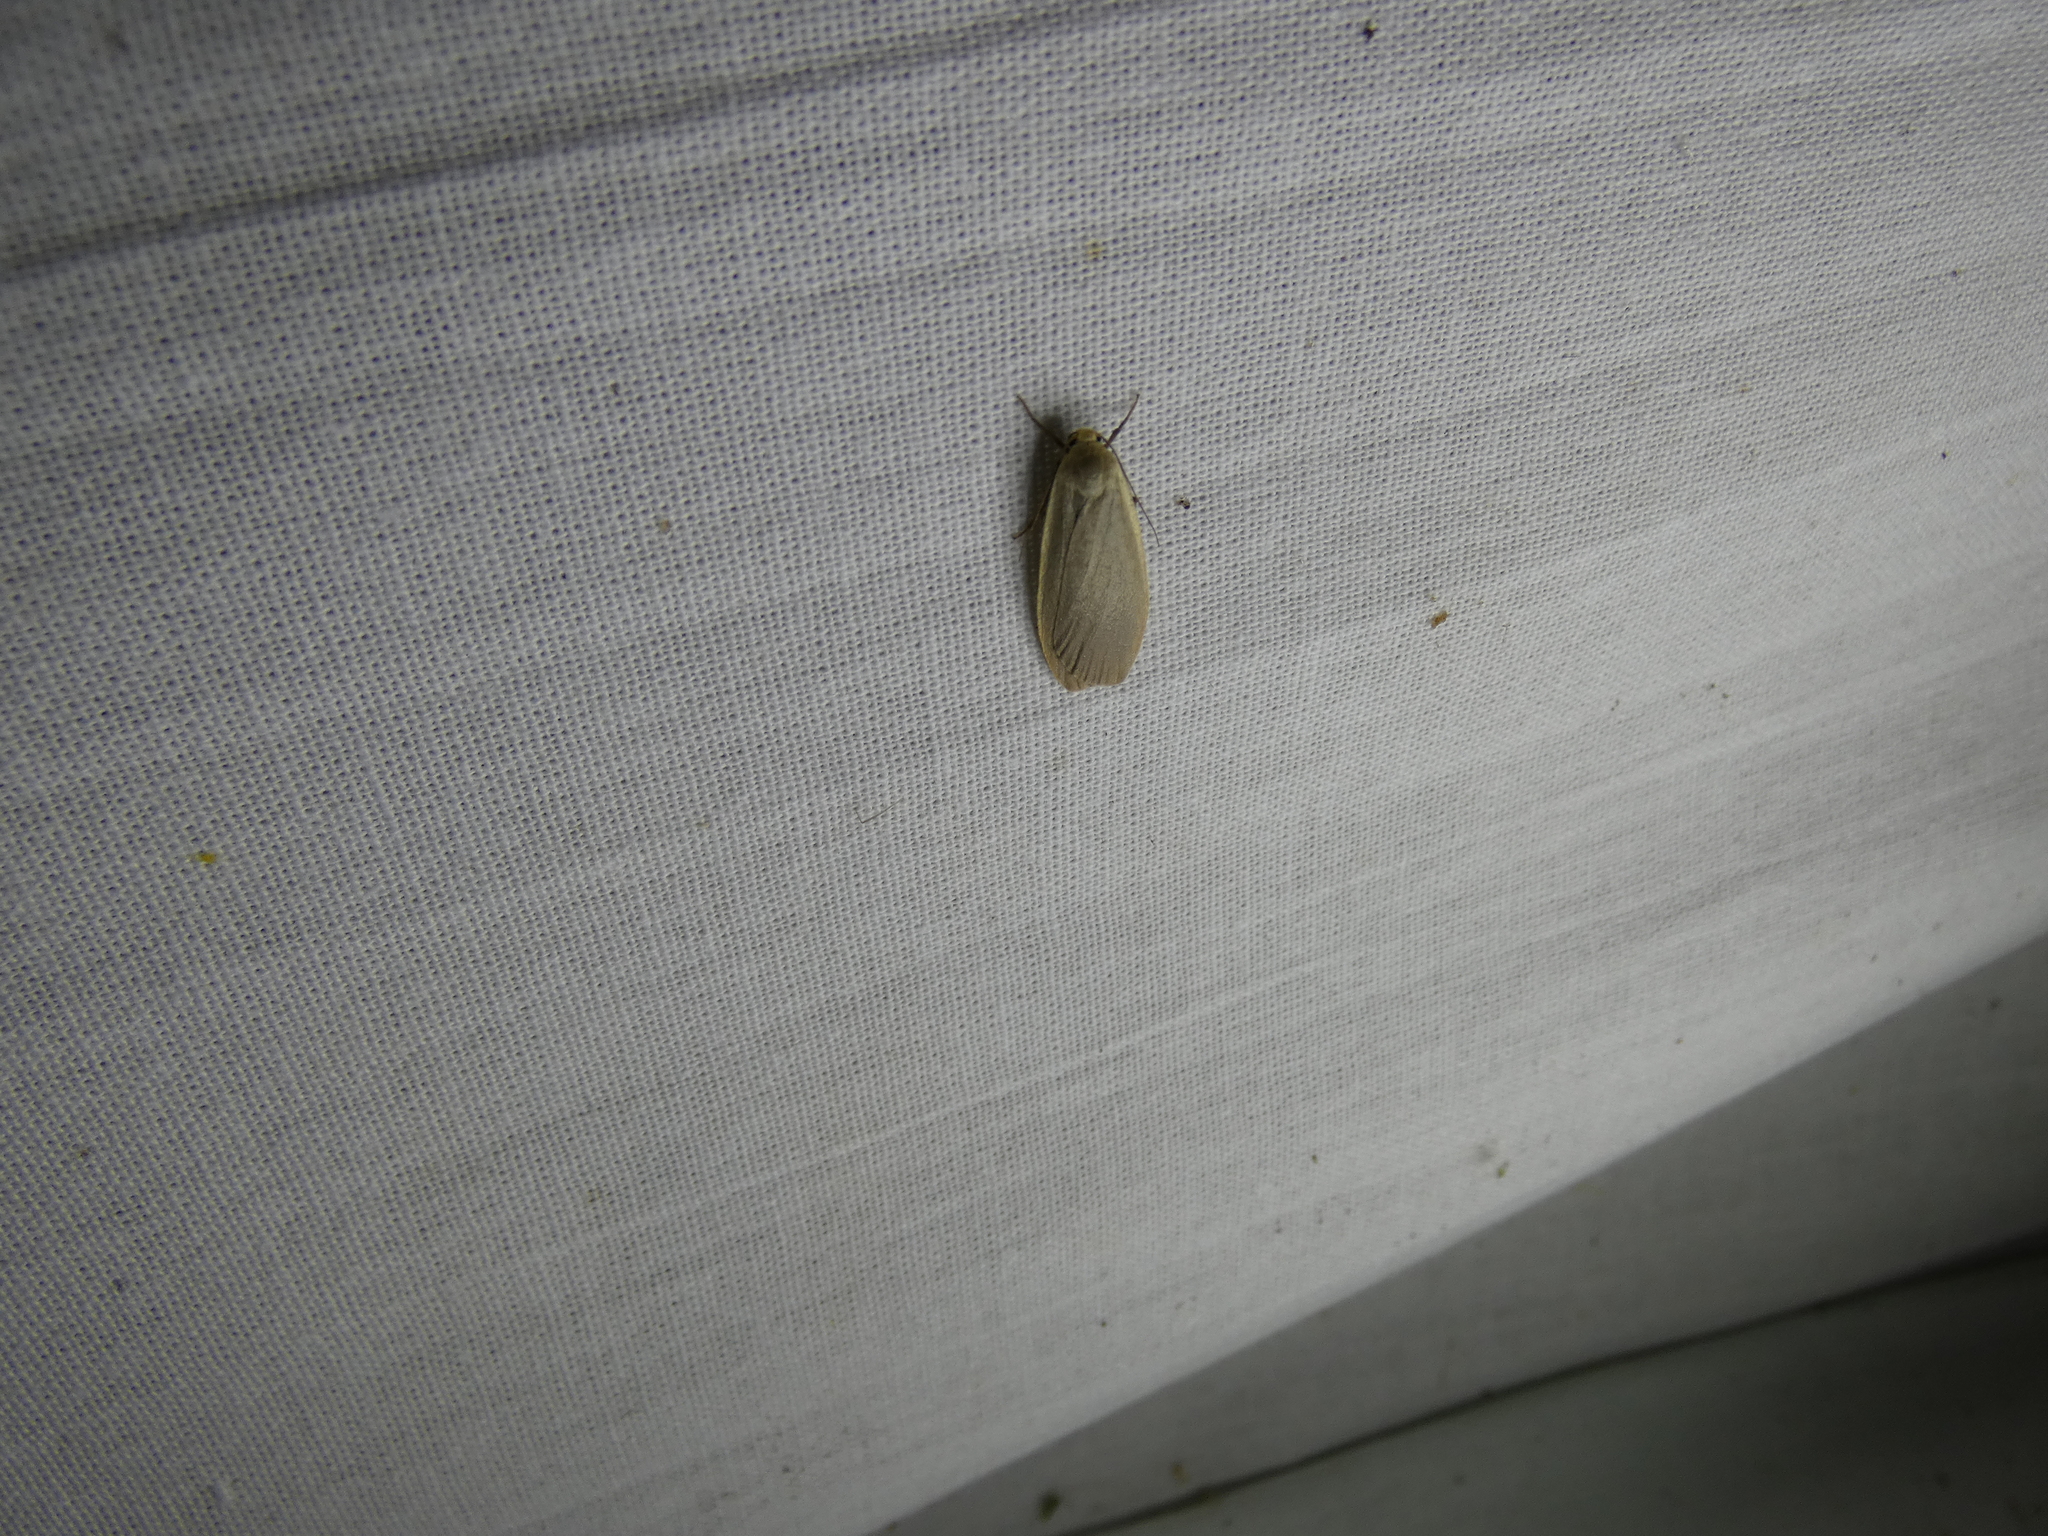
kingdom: Animalia
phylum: Arthropoda
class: Insecta
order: Lepidoptera
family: Erebidae
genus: Collita
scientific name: Collita griseola
